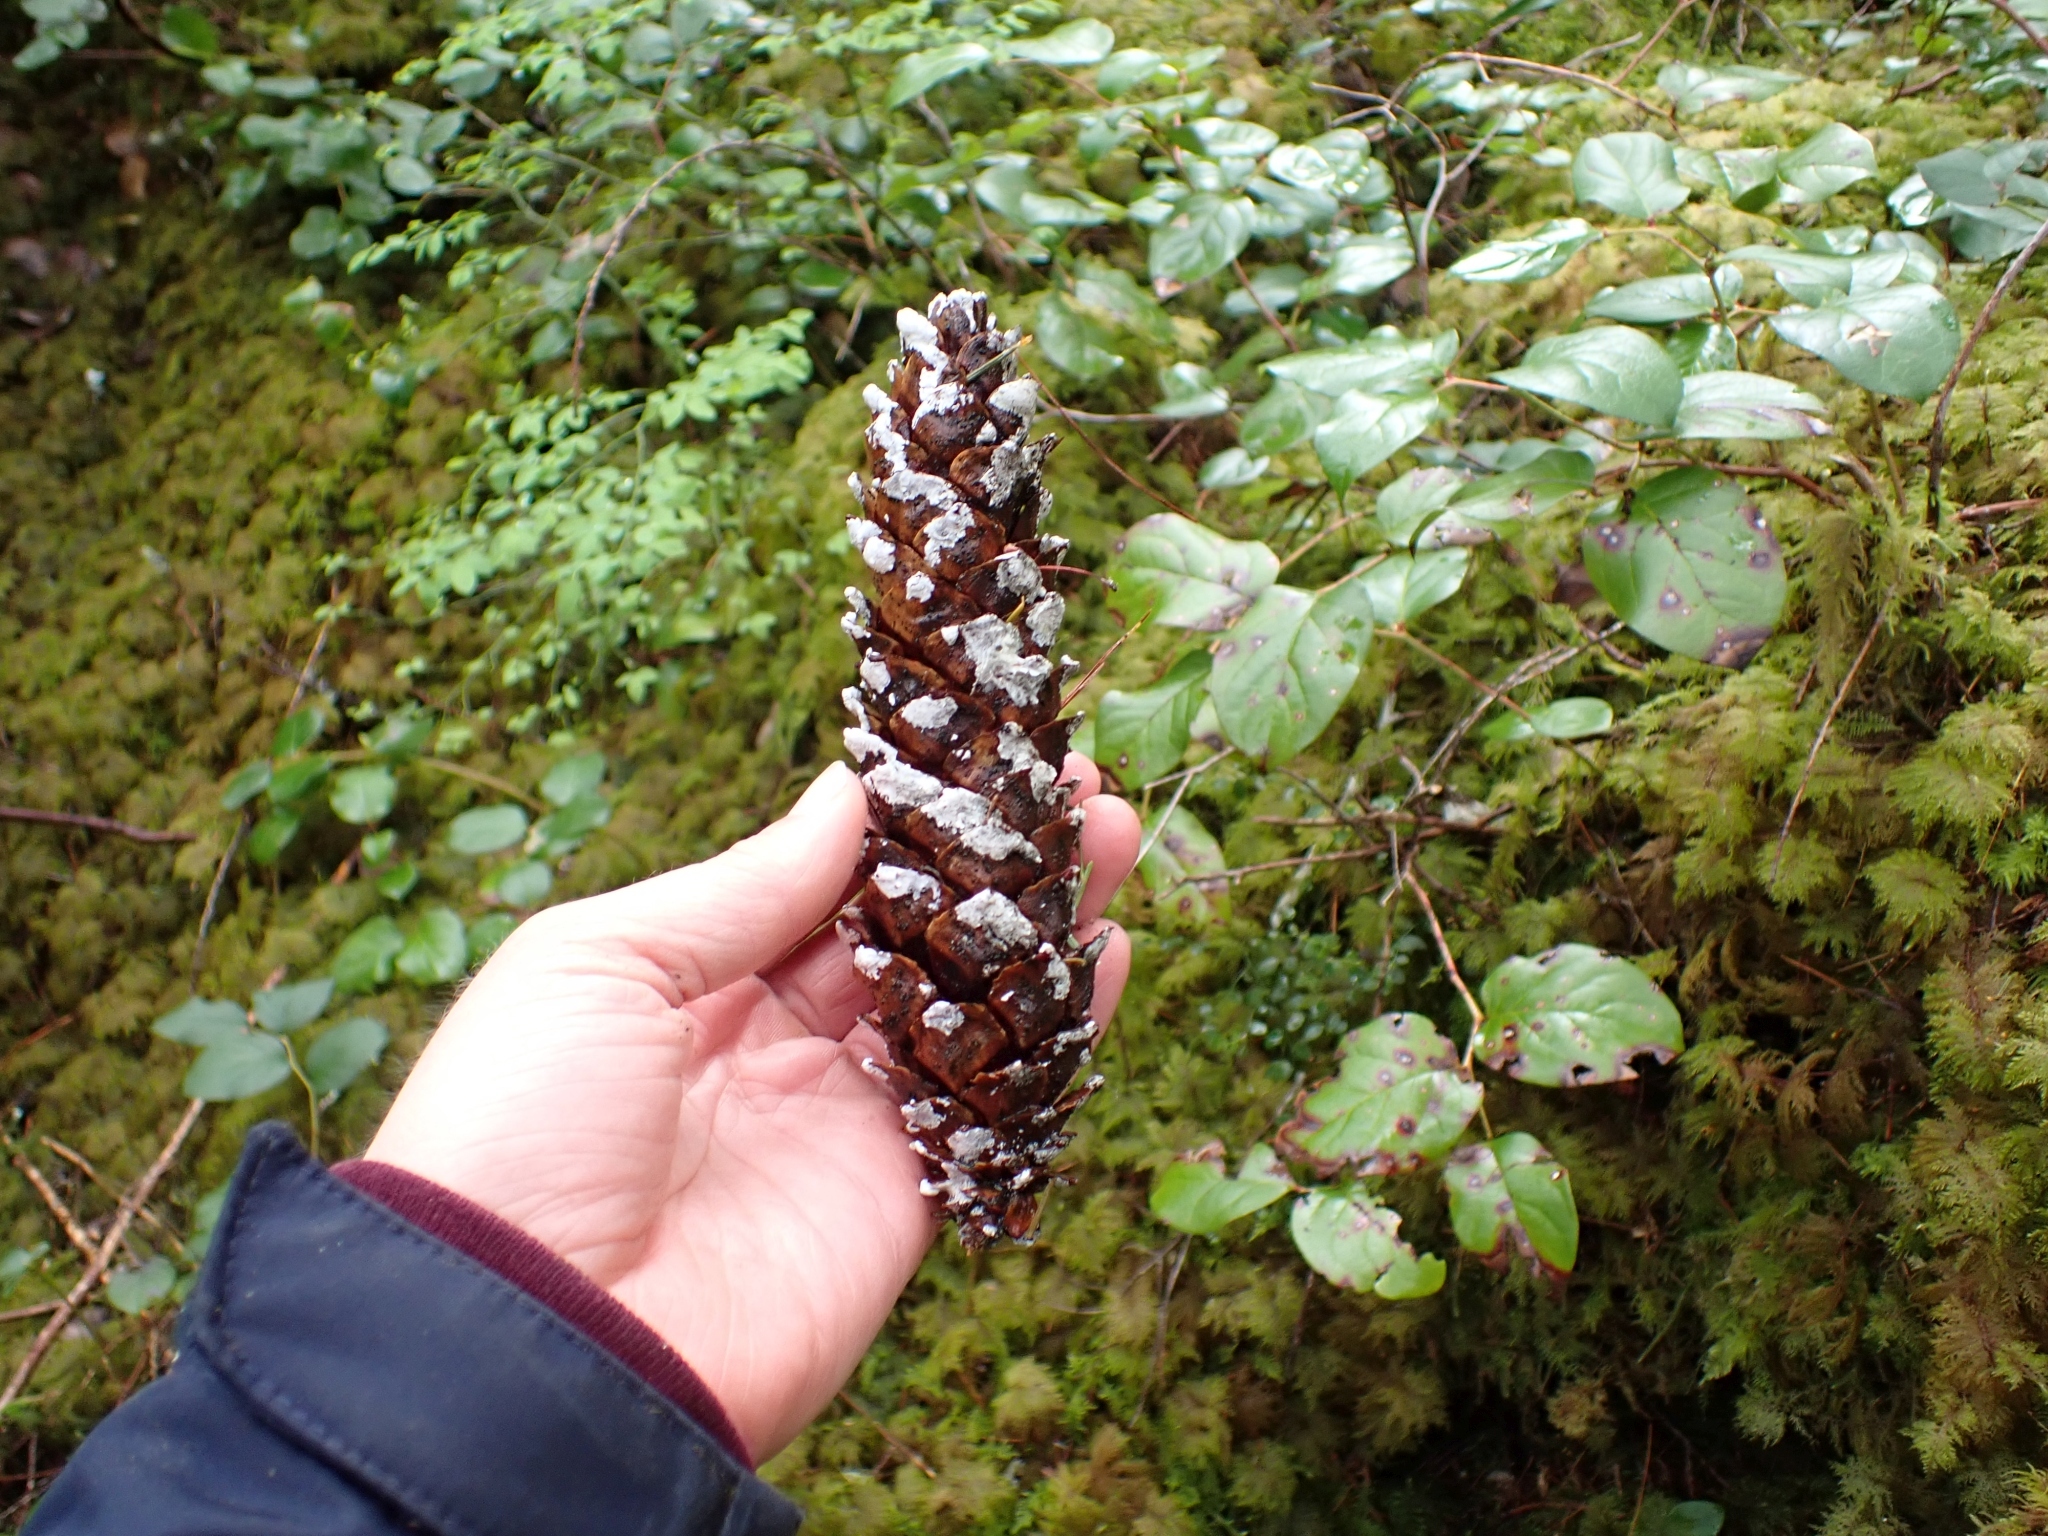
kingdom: Plantae
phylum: Tracheophyta
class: Pinopsida
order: Pinales
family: Pinaceae
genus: Pinus
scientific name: Pinus monticola
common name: Western white pine
